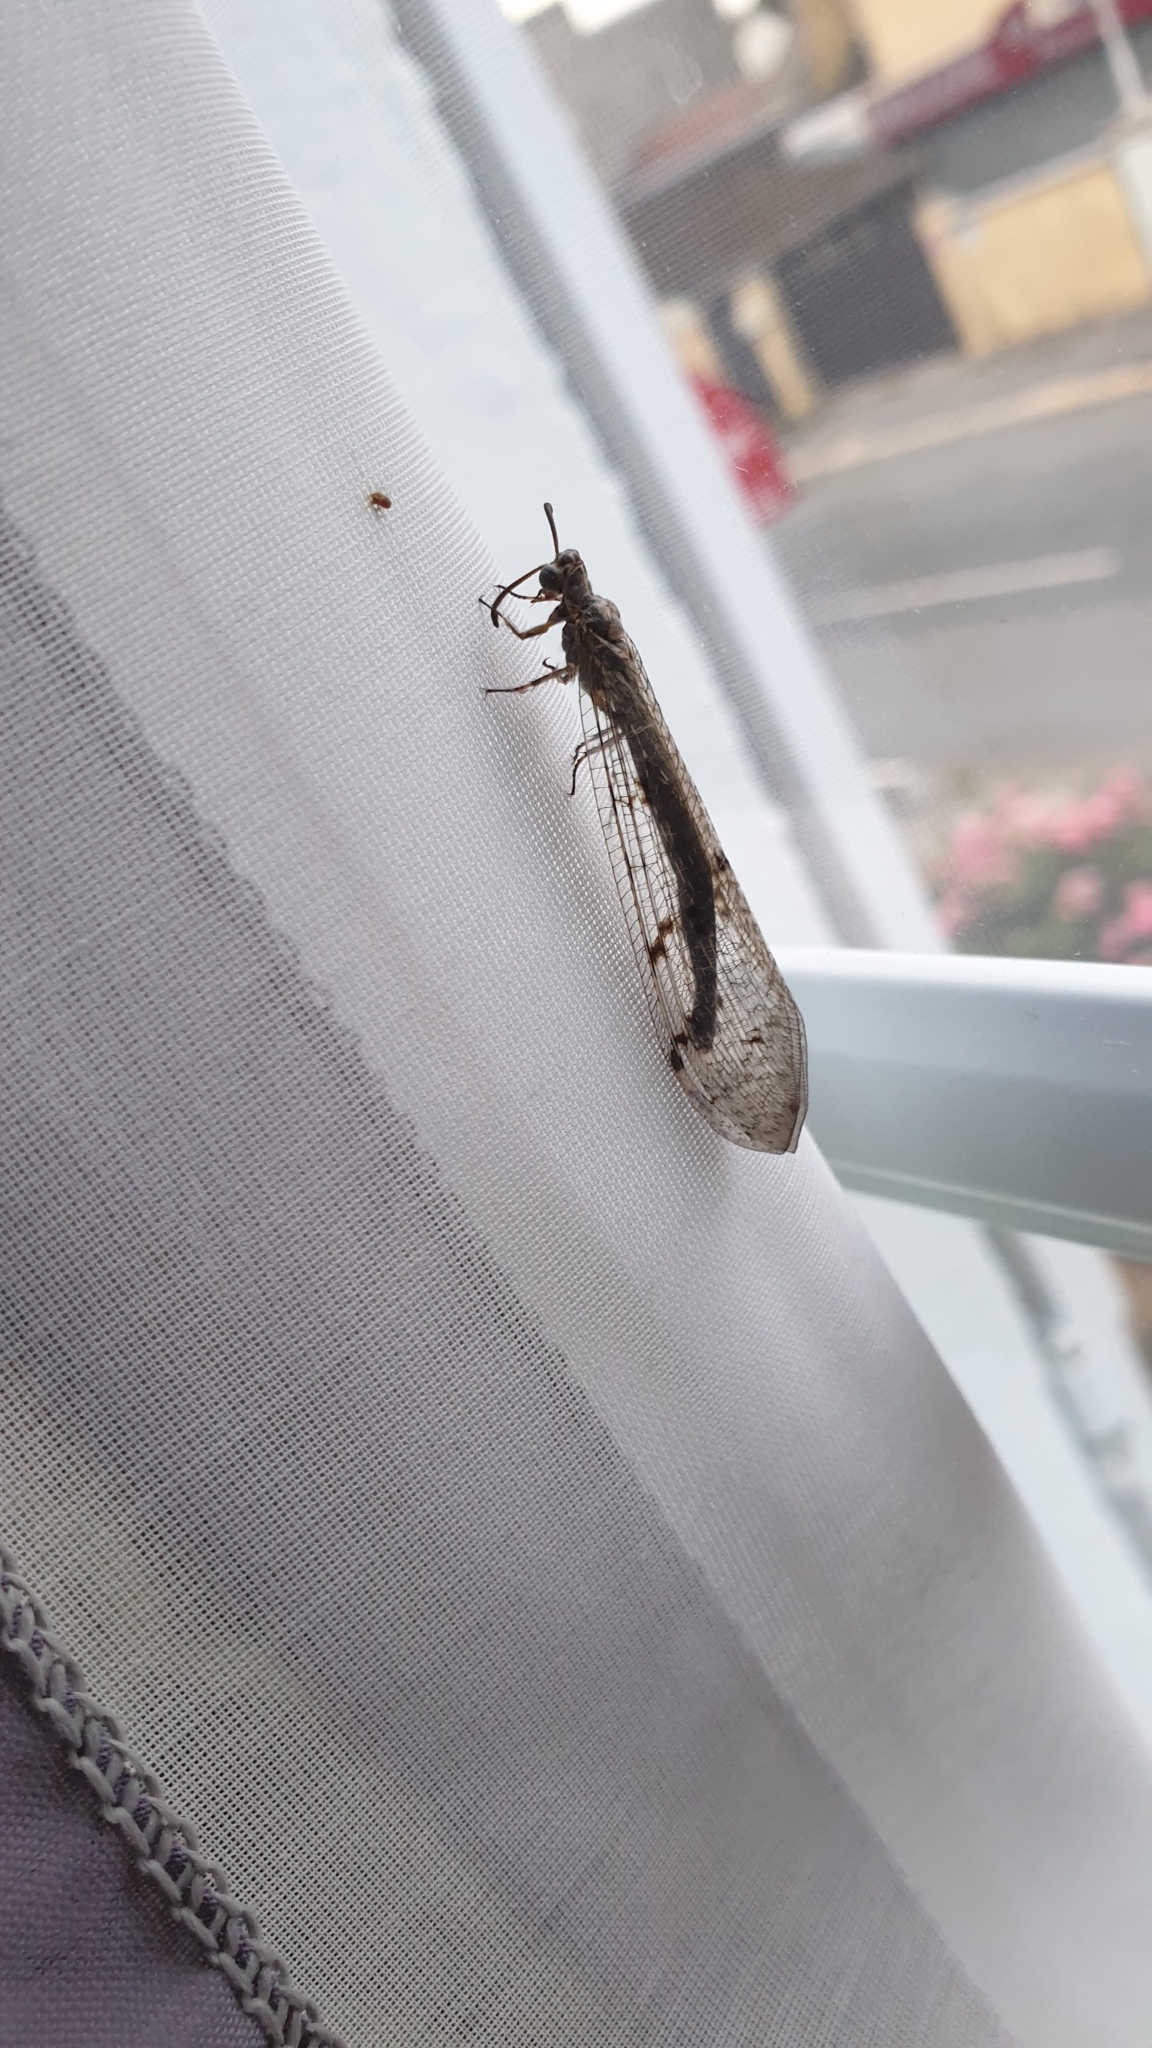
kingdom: Animalia
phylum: Arthropoda
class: Insecta
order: Neuroptera
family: Myrmeleontidae
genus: Euroleon
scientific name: Euroleon nostras
